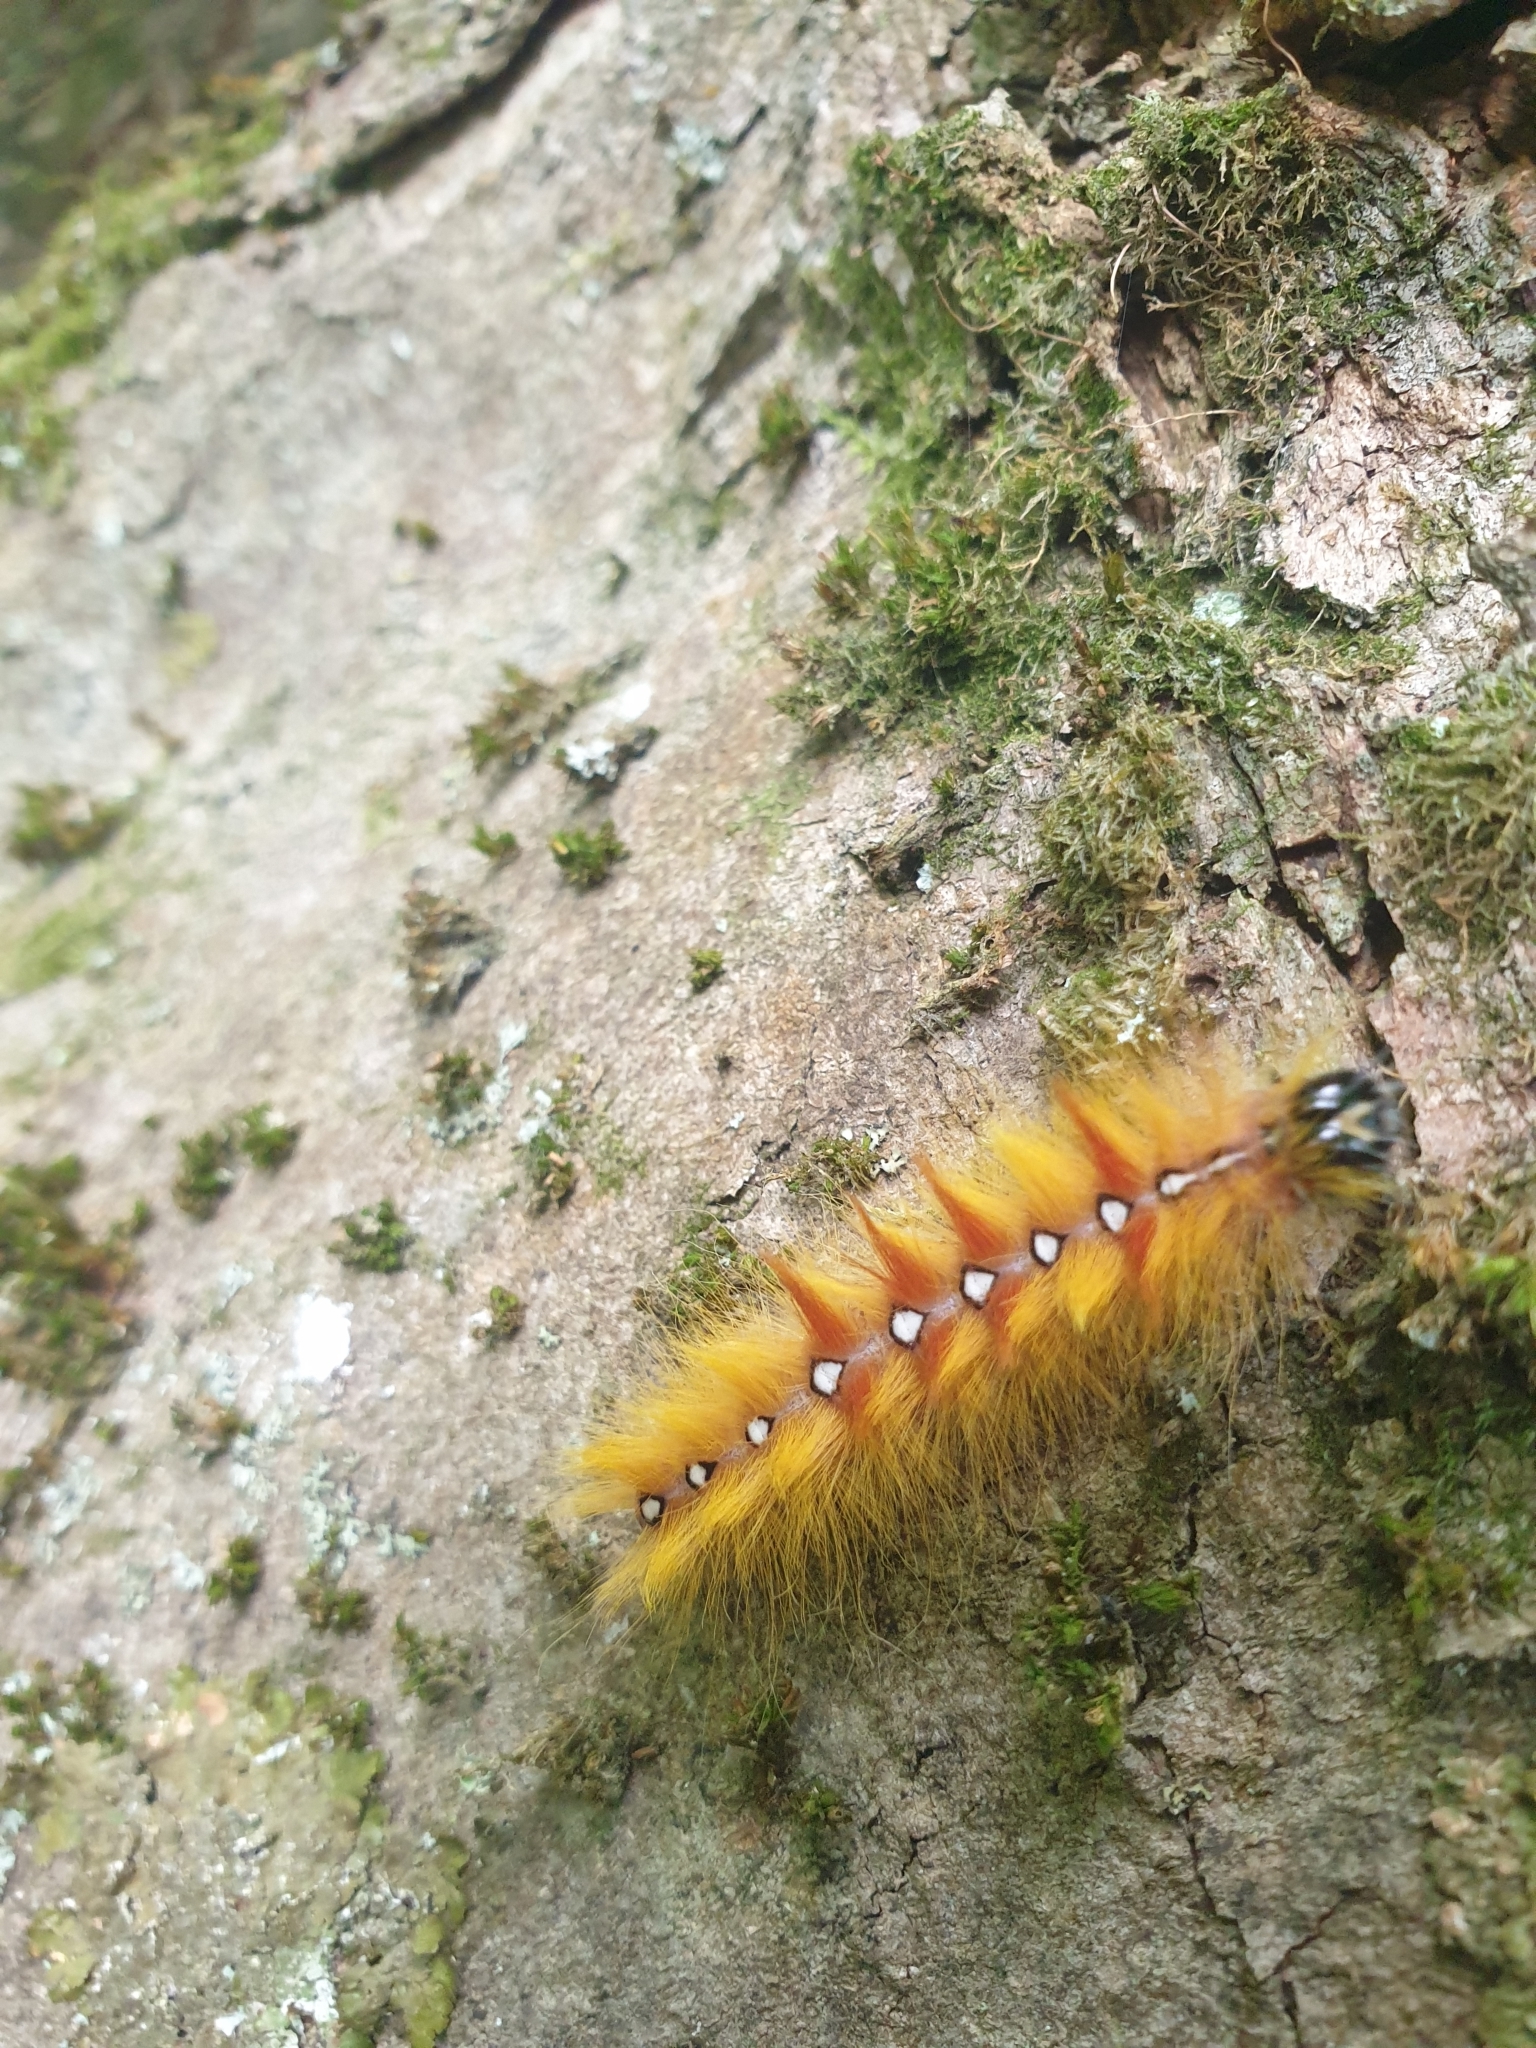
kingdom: Animalia
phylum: Arthropoda
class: Insecta
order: Lepidoptera
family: Noctuidae
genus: Acronicta
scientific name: Acronicta aceris
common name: Sycamore
